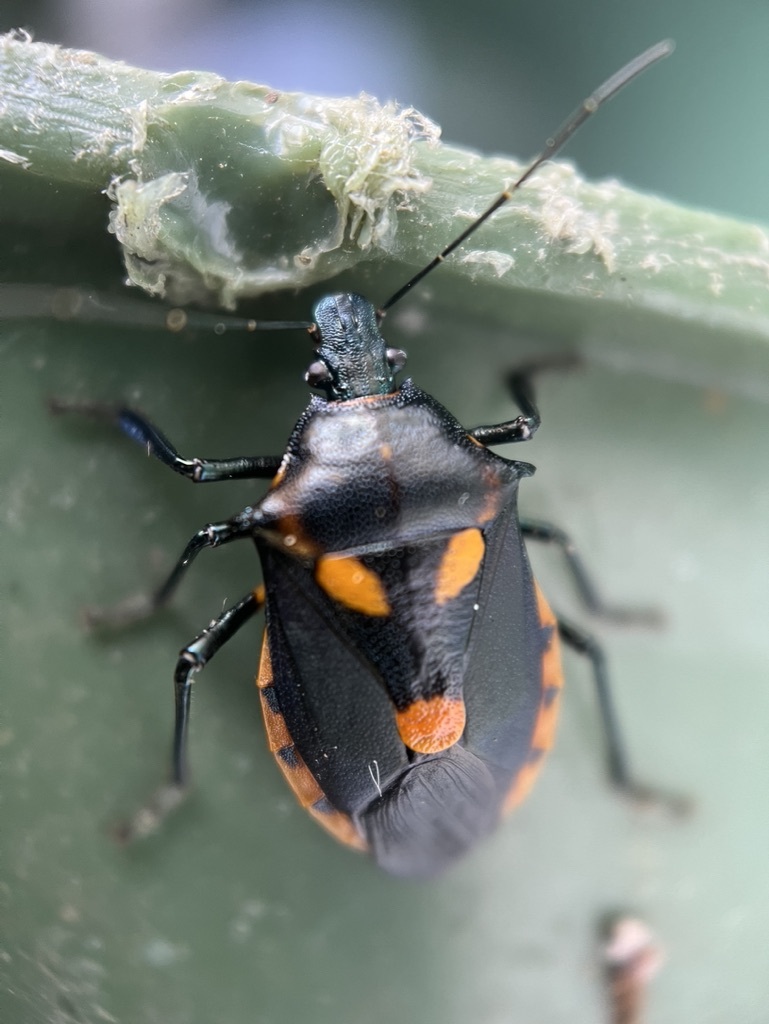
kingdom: Animalia
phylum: Arthropoda
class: Insecta
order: Hemiptera
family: Pentatomidae
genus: Euthyrhynchus
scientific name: Euthyrhynchus floridanus
